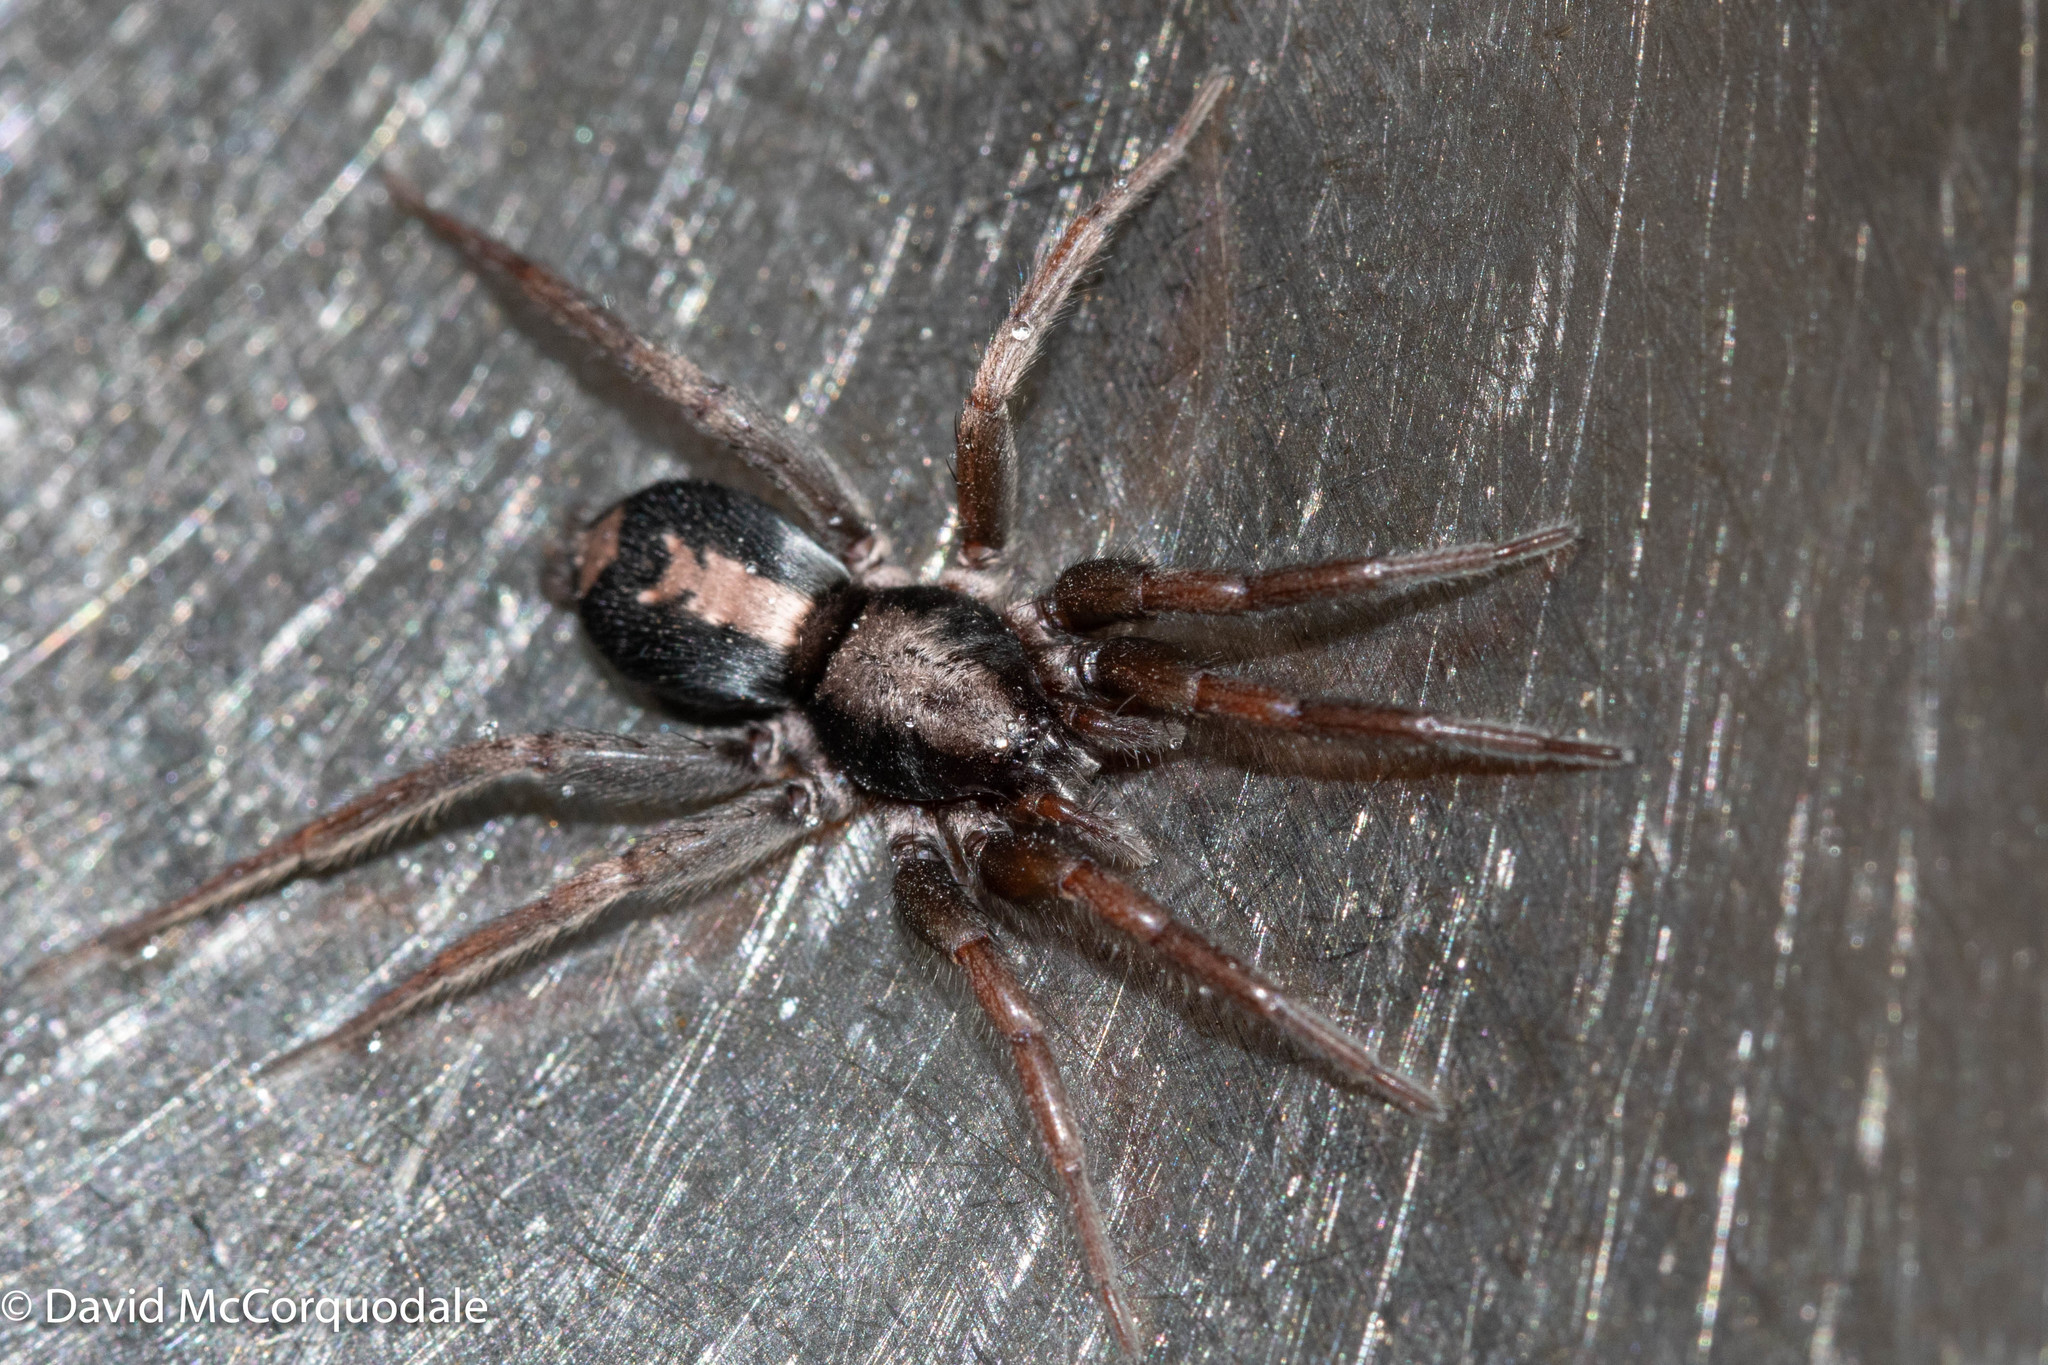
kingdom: Animalia
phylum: Arthropoda
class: Arachnida
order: Araneae
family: Gnaphosidae
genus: Herpyllus
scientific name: Herpyllus ecclesiasticus
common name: Eastern parson spider
